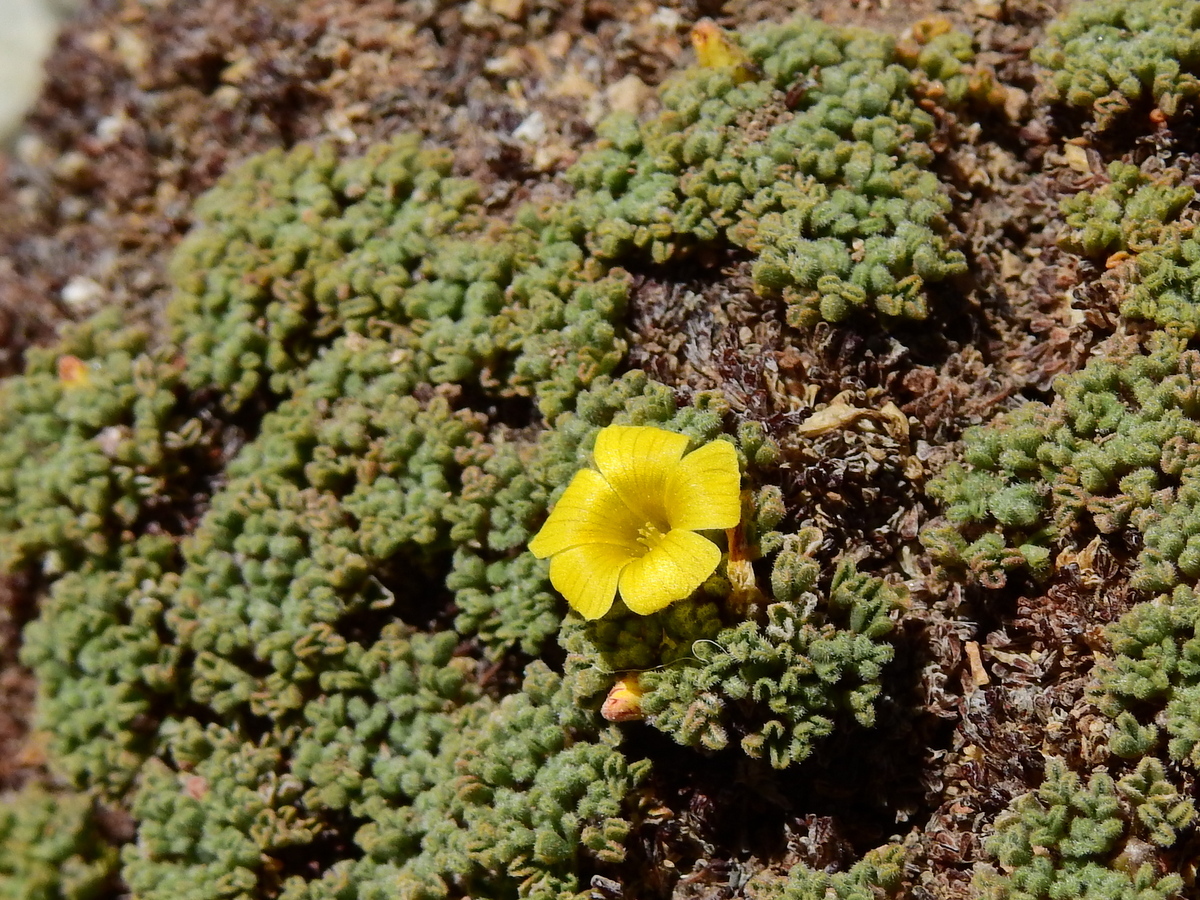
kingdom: Plantae
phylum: Tracheophyta
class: Magnoliopsida
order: Oxalidales
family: Oxalidaceae
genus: Oxalis
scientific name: Oxalis erythrorhiza
